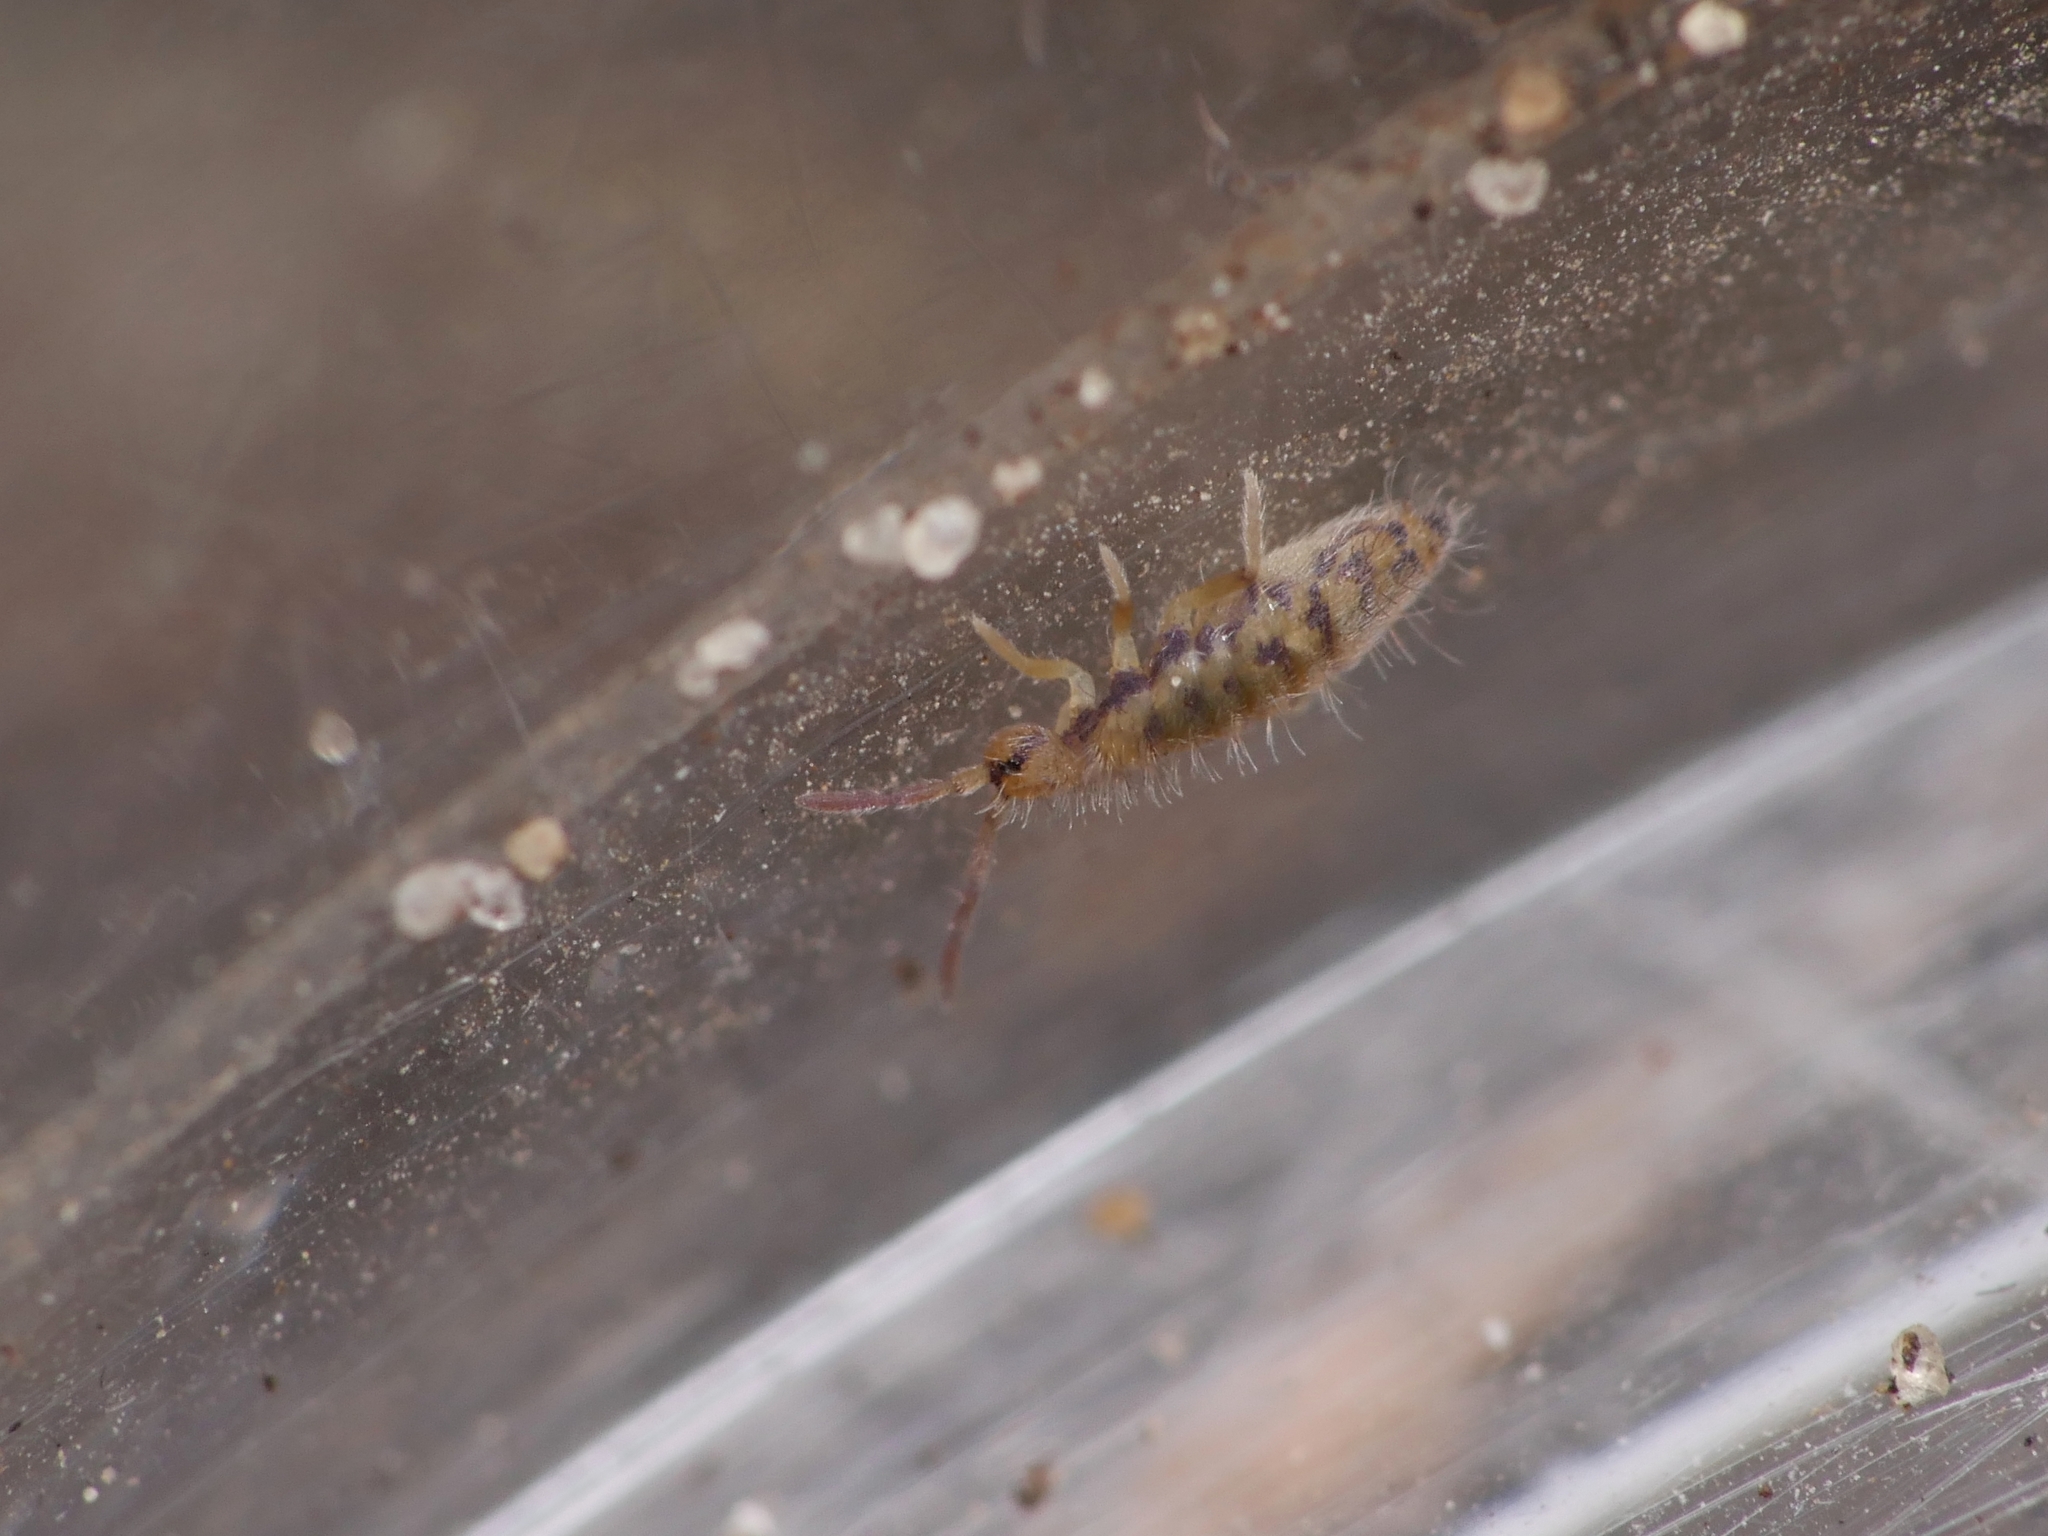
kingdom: Animalia
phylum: Arthropoda
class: Collembola
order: Entomobryomorpha
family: Entomobryidae
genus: Entomobrya
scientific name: Entomobrya multifasciata
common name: Springtail
